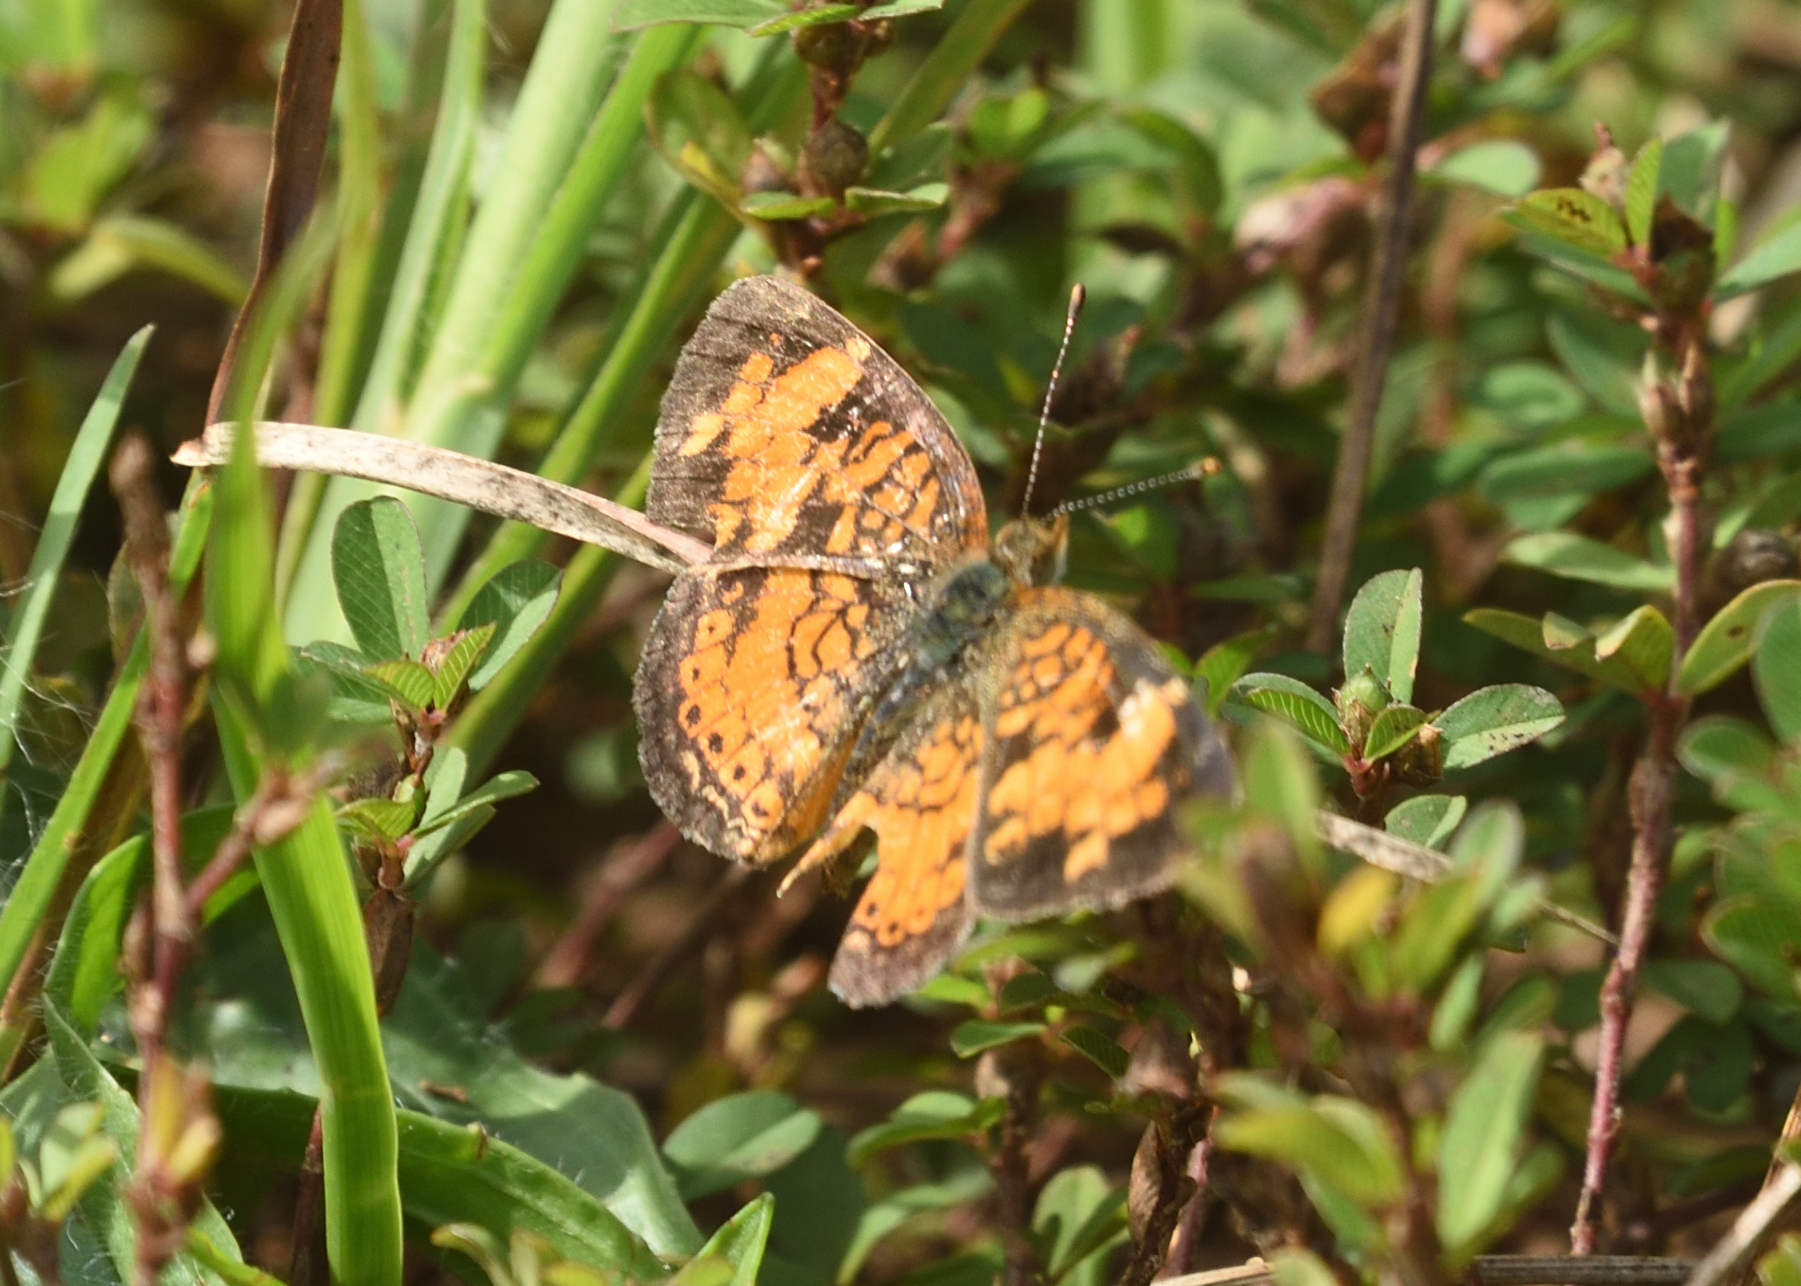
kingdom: Animalia
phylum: Arthropoda
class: Insecta
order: Lepidoptera
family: Nymphalidae
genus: Phyciodes
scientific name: Phyciodes tharos
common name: Pearl crescent
